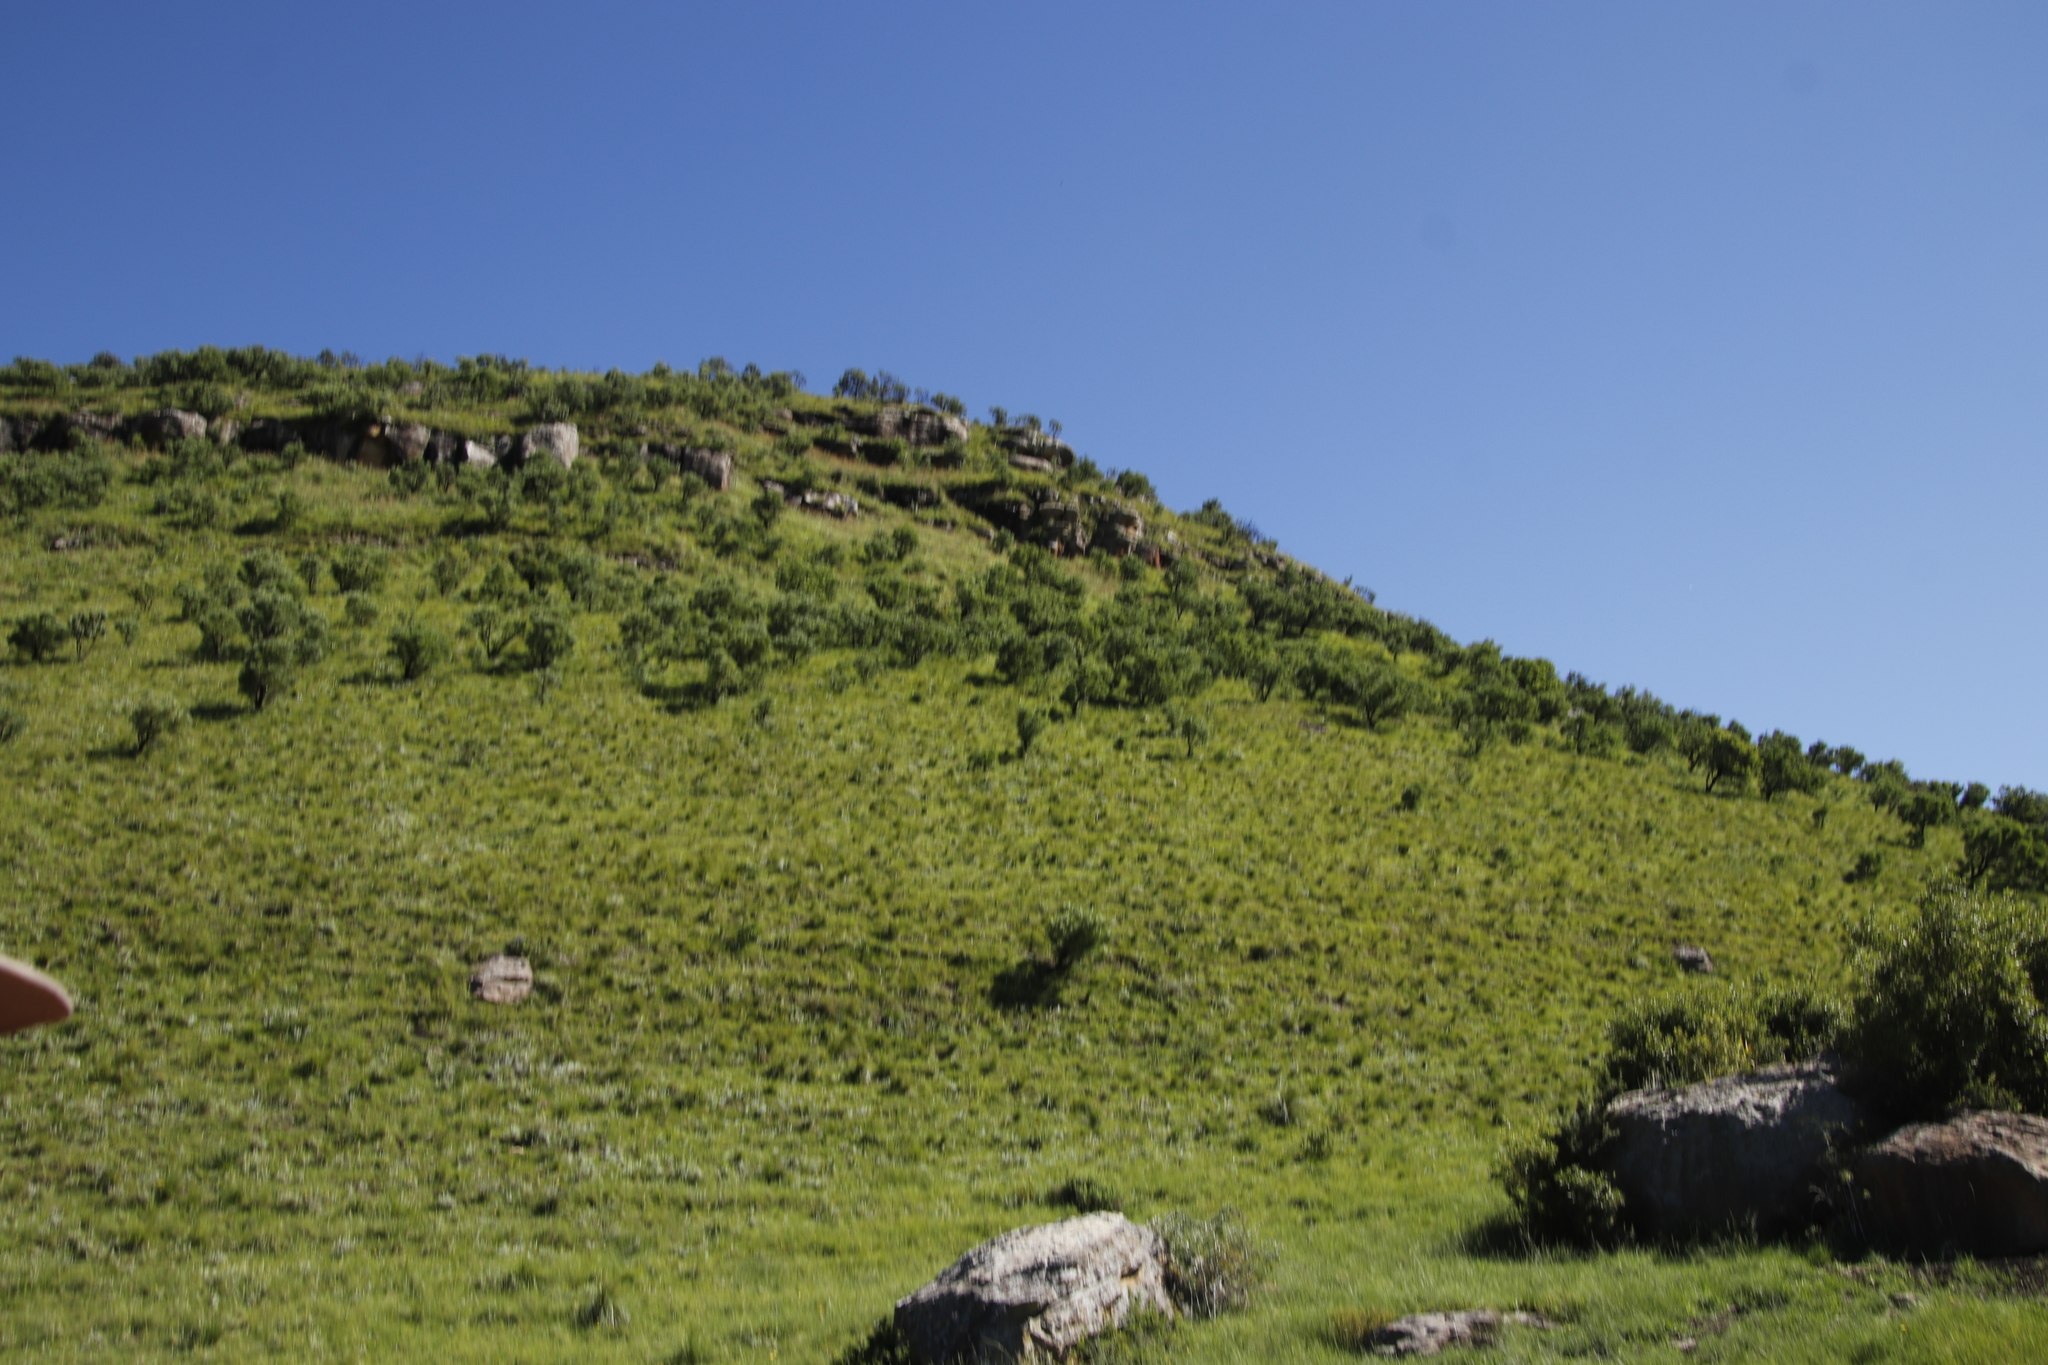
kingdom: Plantae
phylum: Tracheophyta
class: Magnoliopsida
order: Proteales
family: Proteaceae
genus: Protea
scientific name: Protea caffra
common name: Common sugarbush
